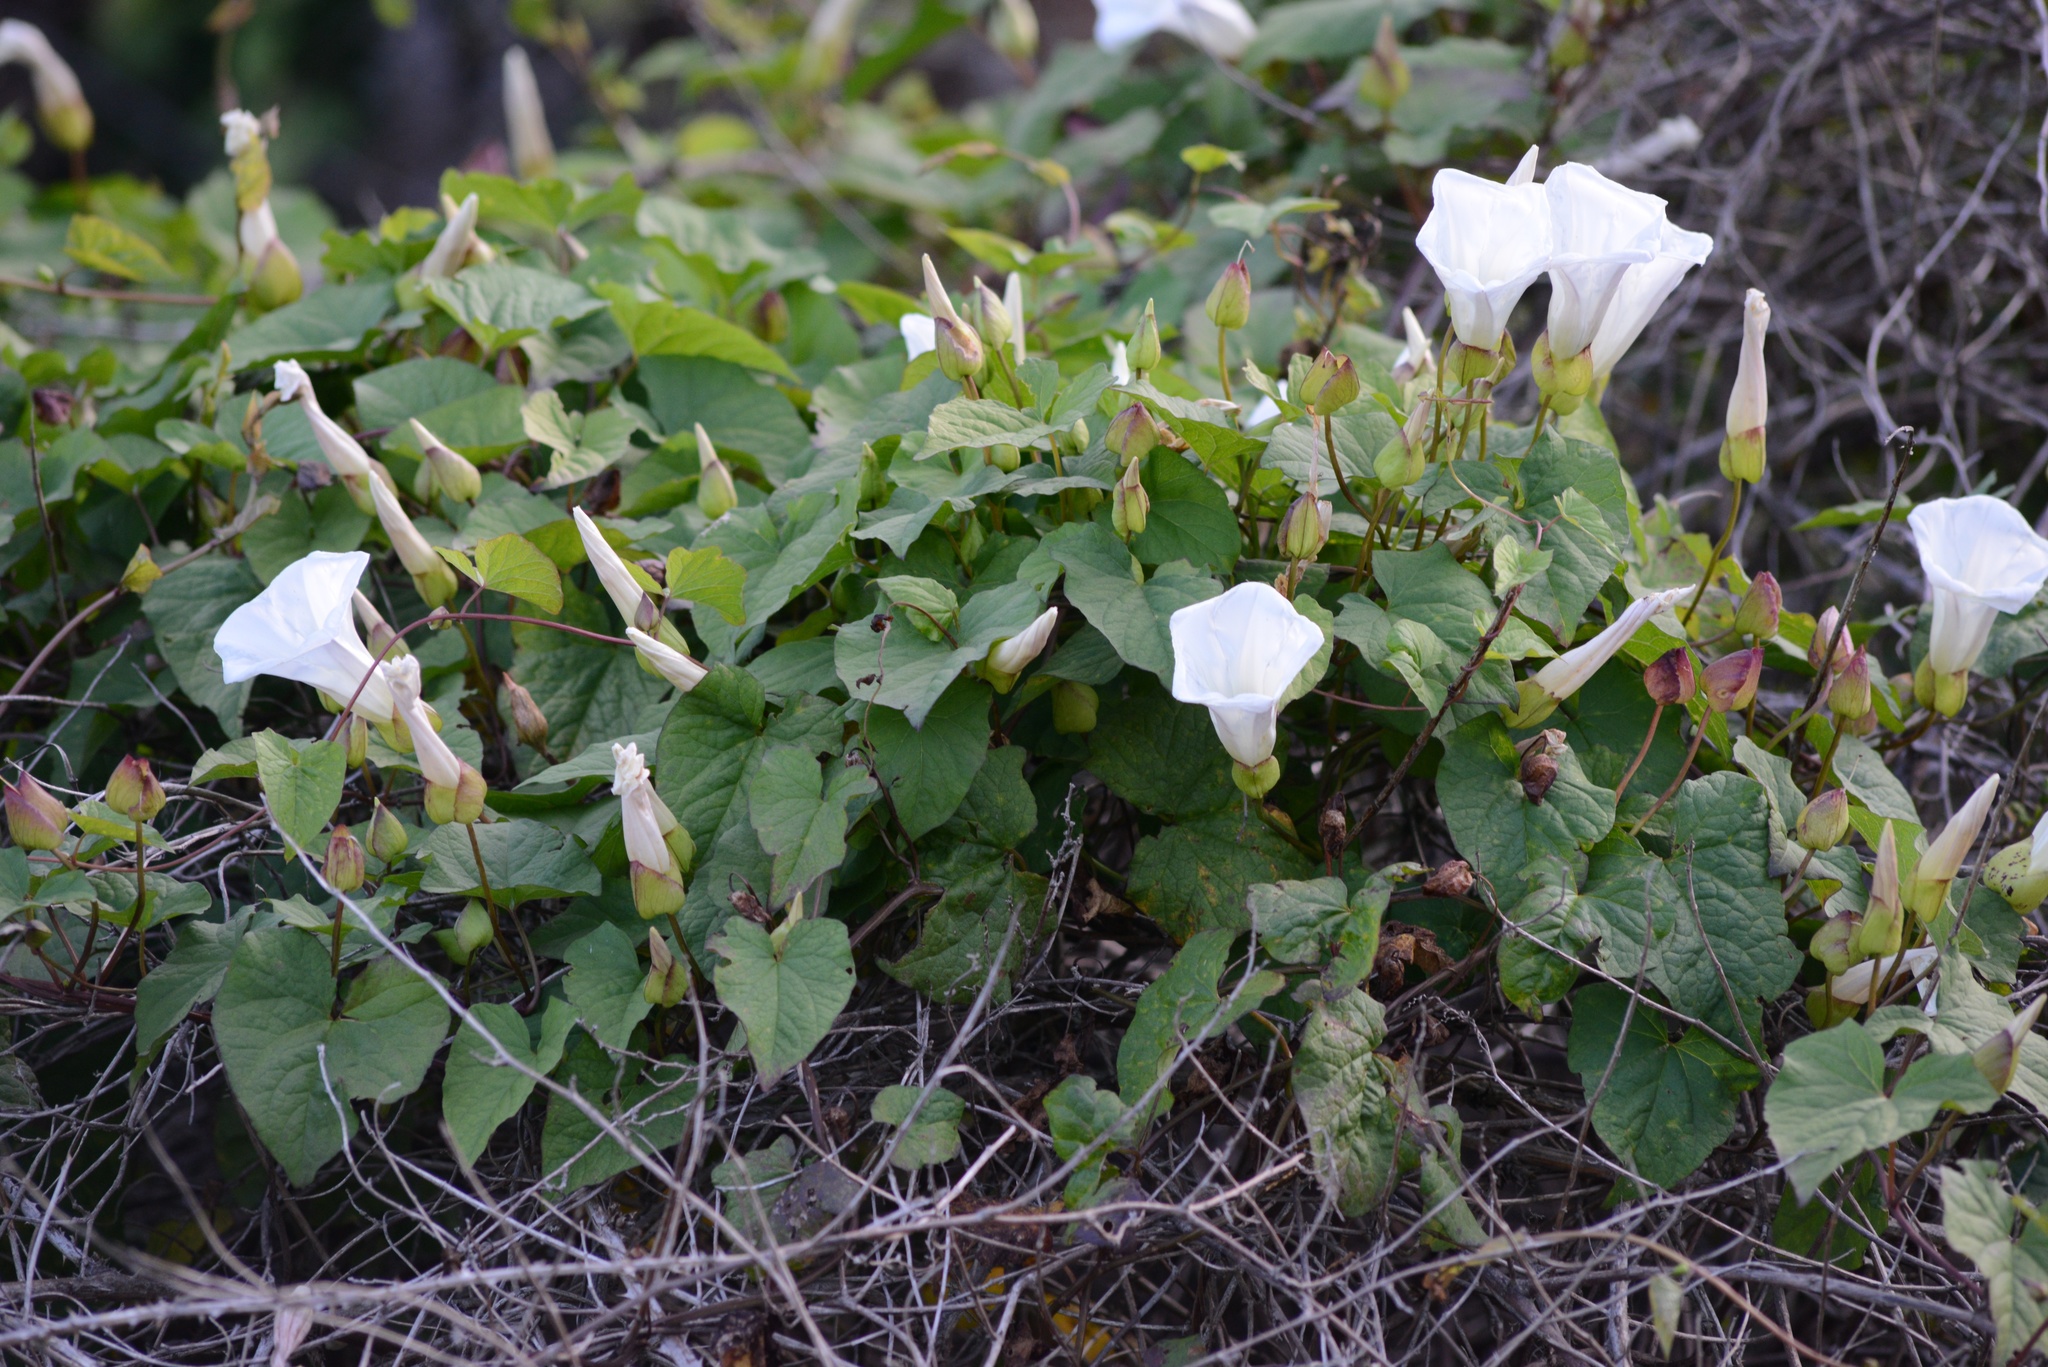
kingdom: Plantae
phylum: Tracheophyta
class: Magnoliopsida
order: Solanales
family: Convolvulaceae
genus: Calystegia
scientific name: Calystegia silvatica
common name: Large bindweed
